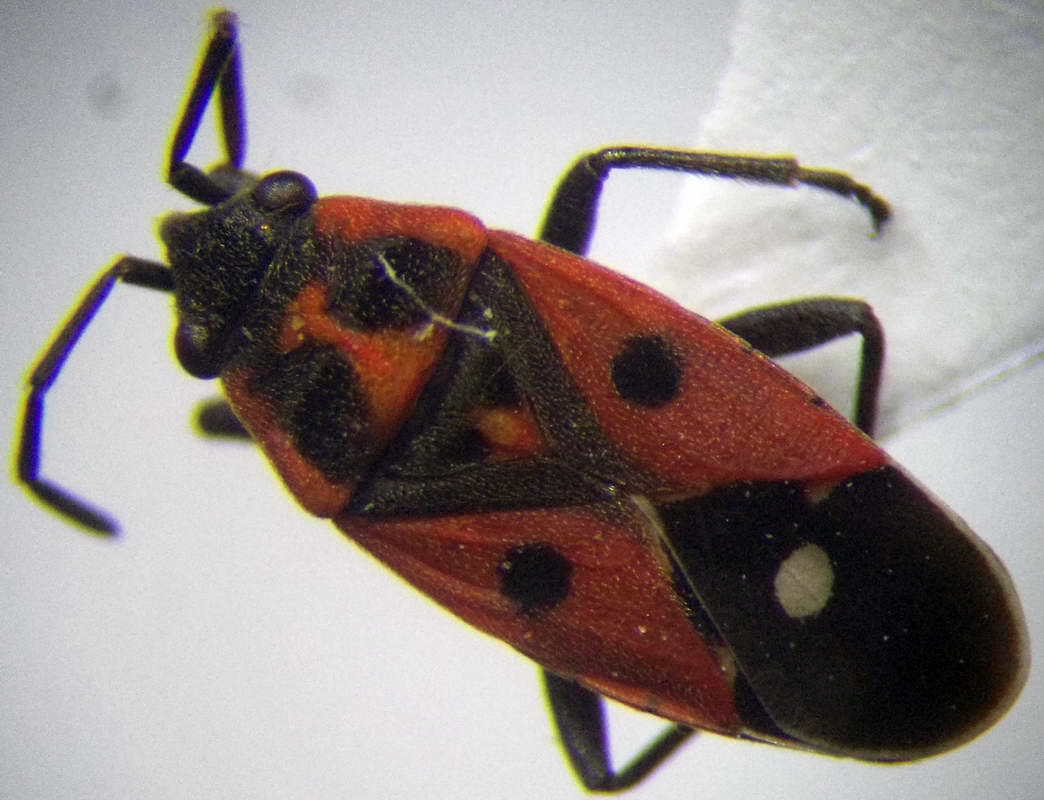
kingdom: Animalia
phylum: Arthropoda
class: Insecta
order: Hemiptera
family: Lygaeidae
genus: Melanocoryphus
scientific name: Melanocoryphus tristrami
